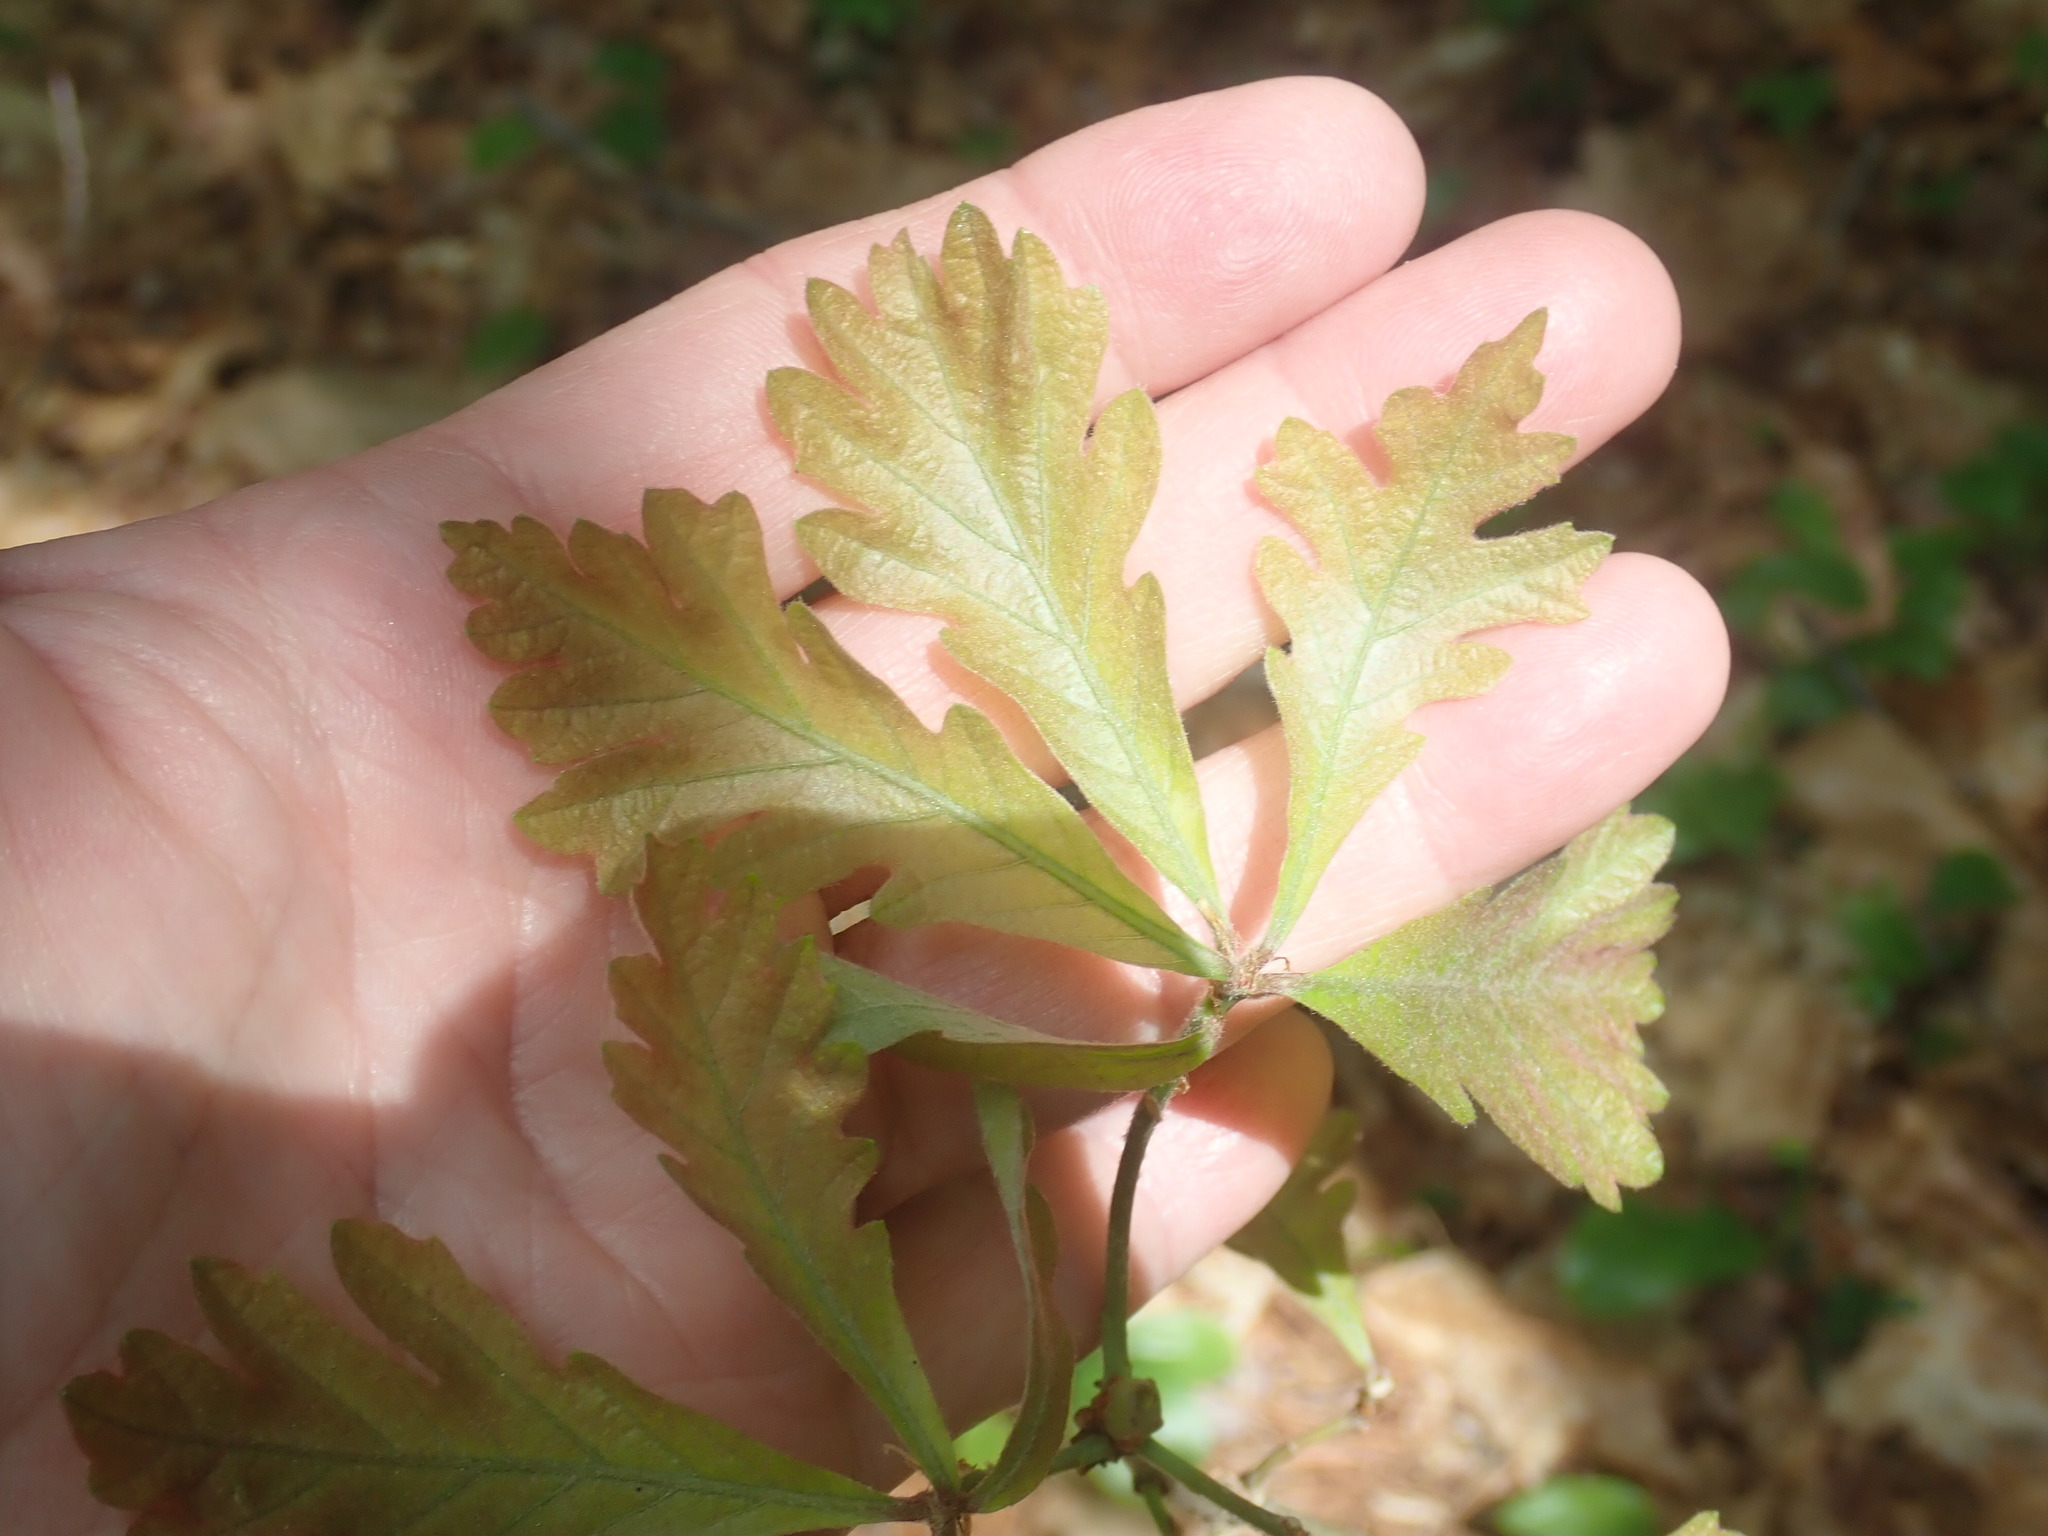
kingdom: Plantae
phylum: Tracheophyta
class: Magnoliopsida
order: Fagales
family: Fagaceae
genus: Quercus
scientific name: Quercus alba
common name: White oak
